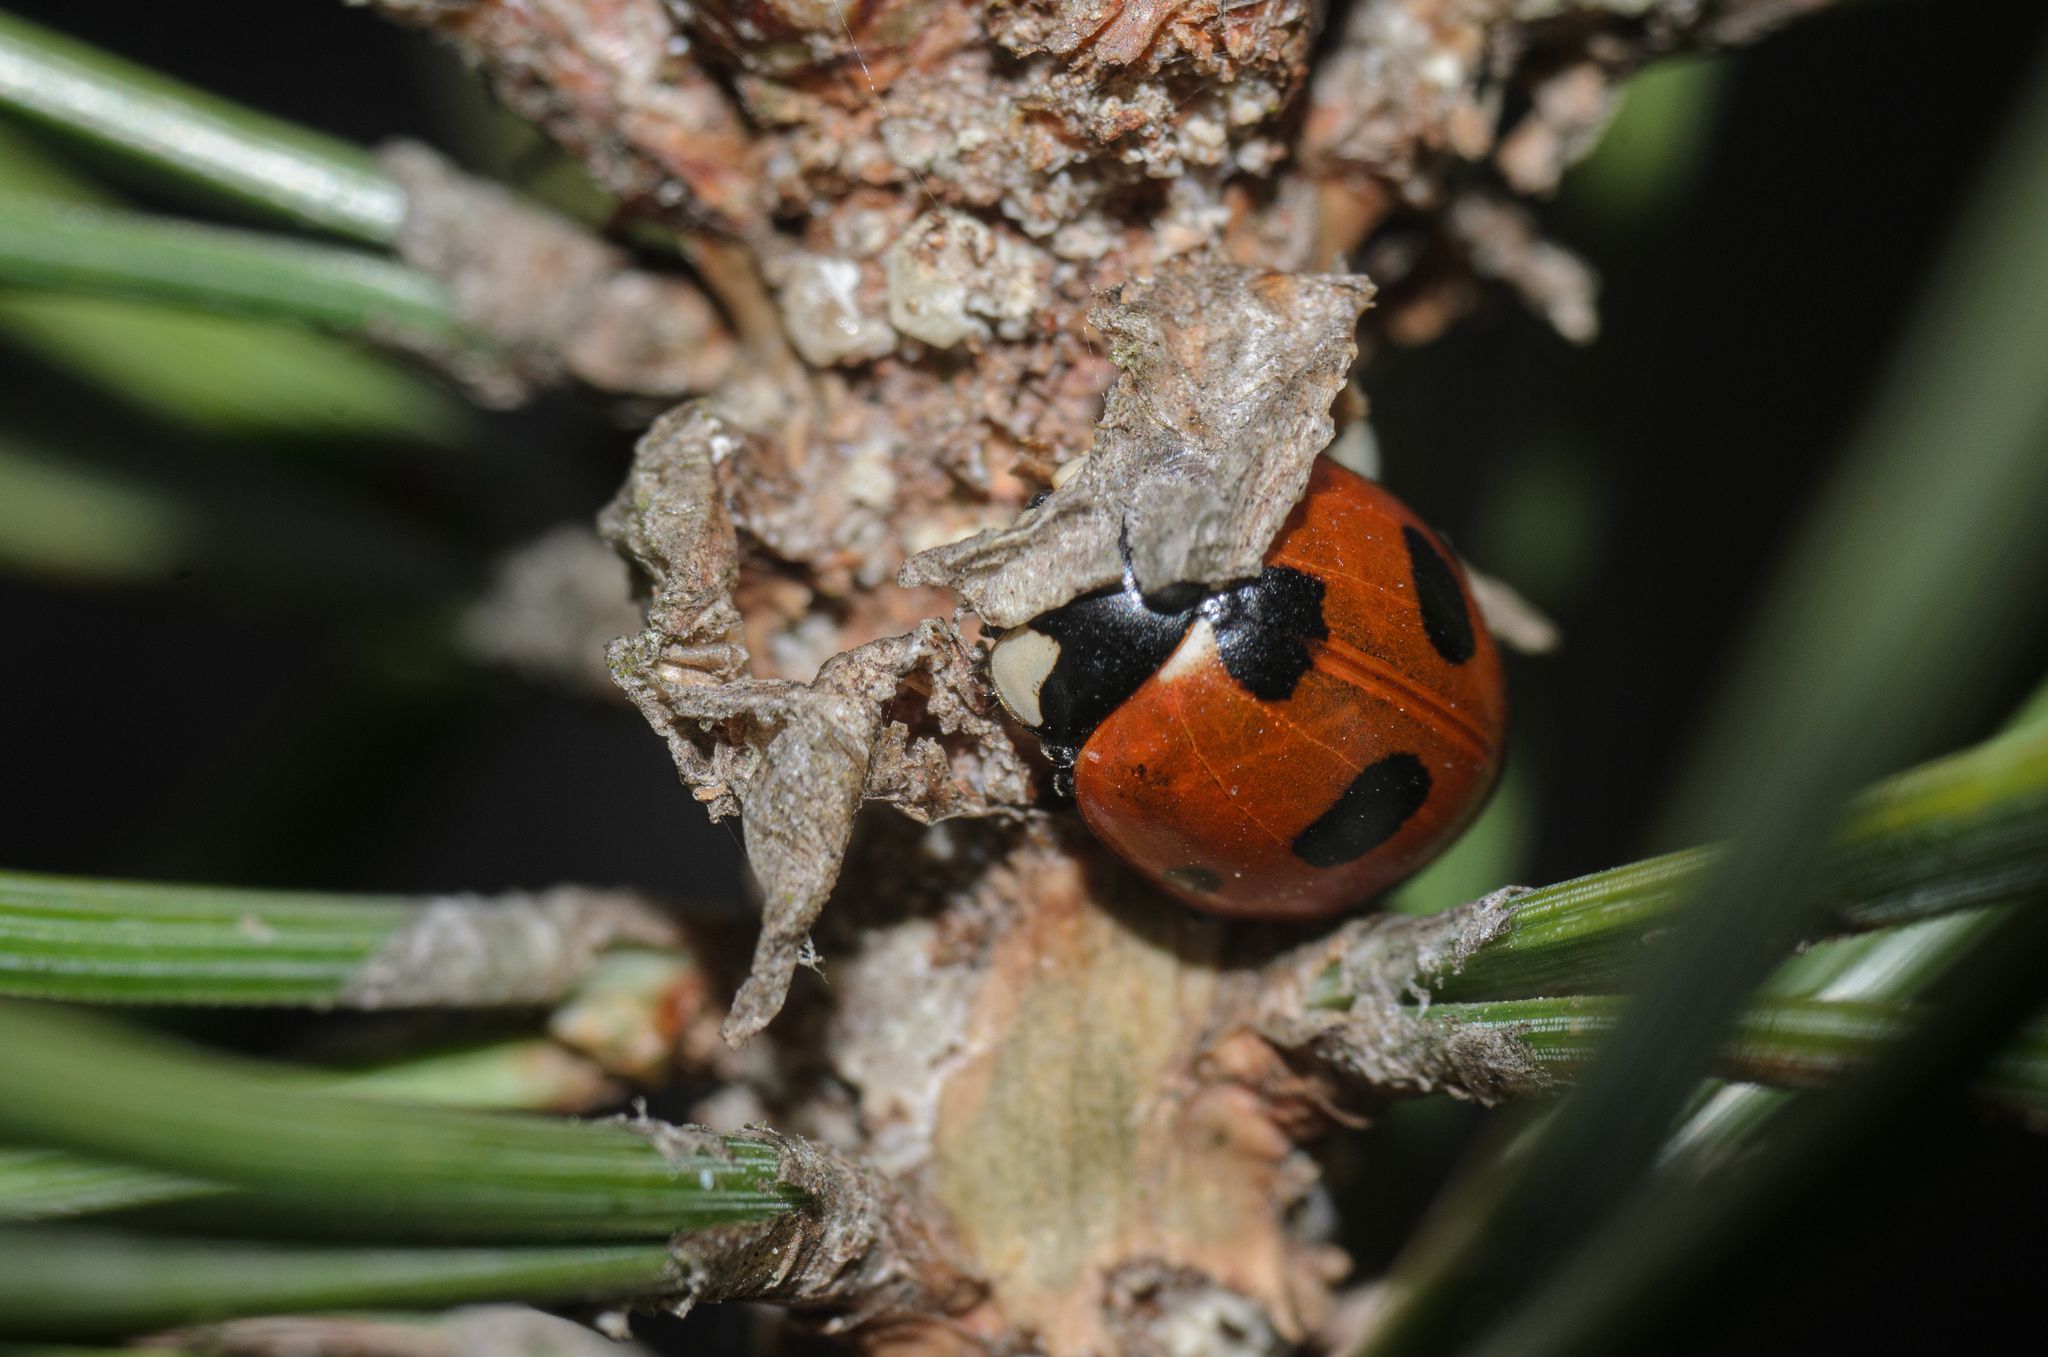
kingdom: Animalia
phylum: Arthropoda
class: Insecta
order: Coleoptera
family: Coccinellidae
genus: Coccinella
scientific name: Coccinella magnifica
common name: Scarce 7-spot ladybird
